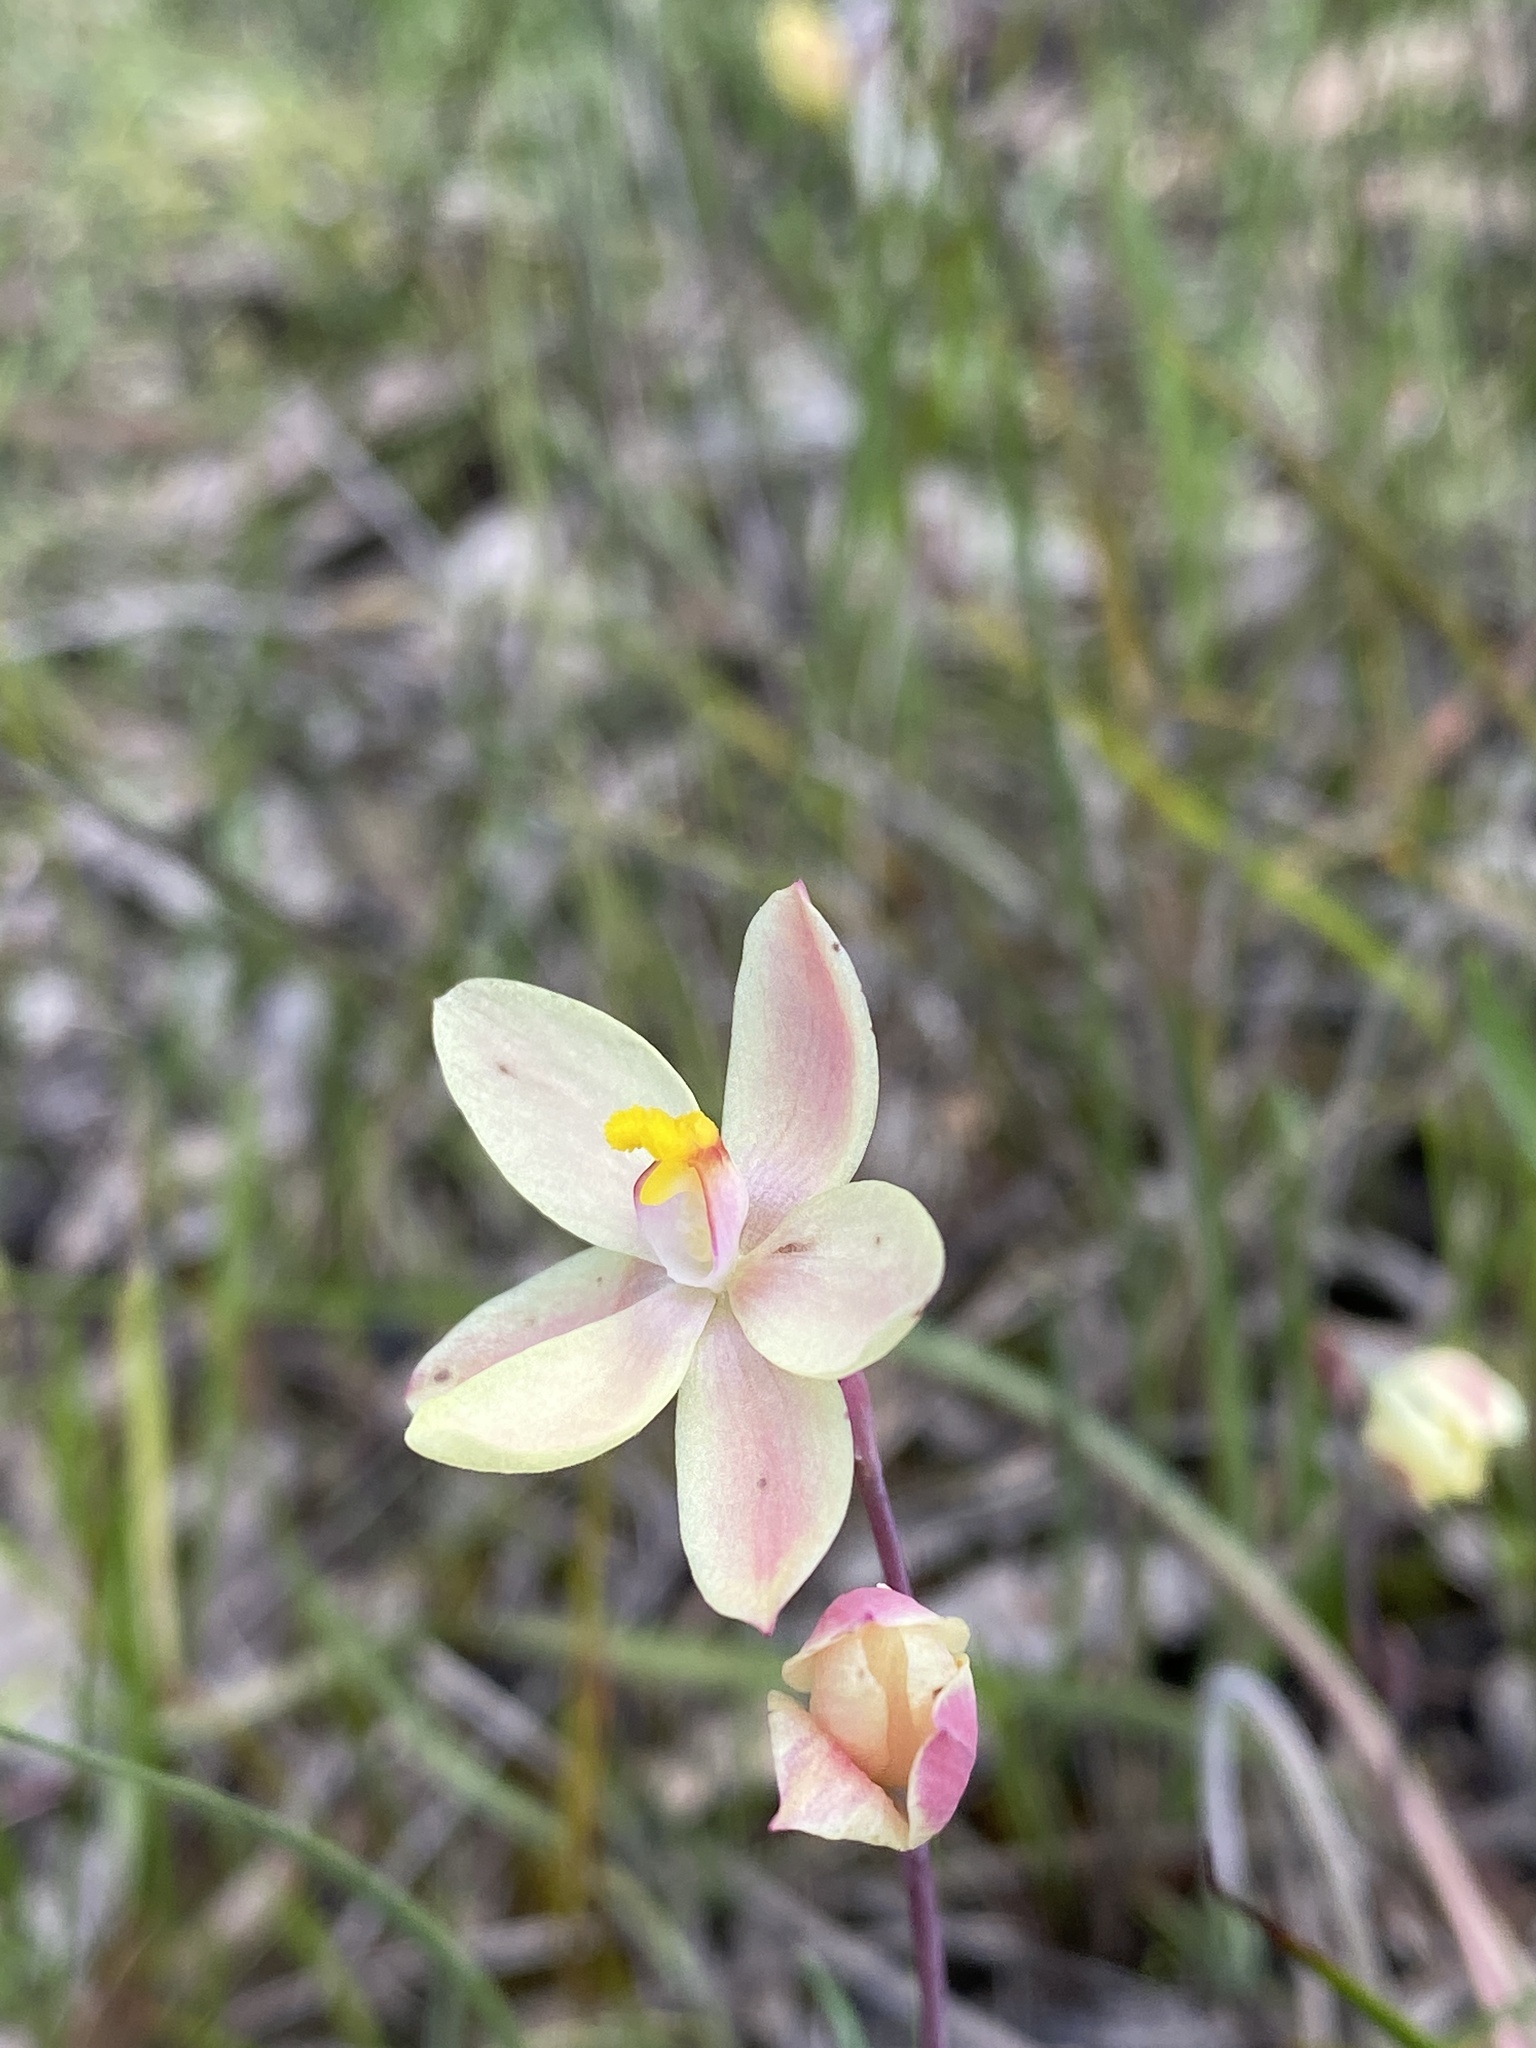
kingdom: Plantae
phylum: Tracheophyta
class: Liliopsida
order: Asparagales
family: Orchidaceae
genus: Thelymitra
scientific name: Thelymitra macmillanii
